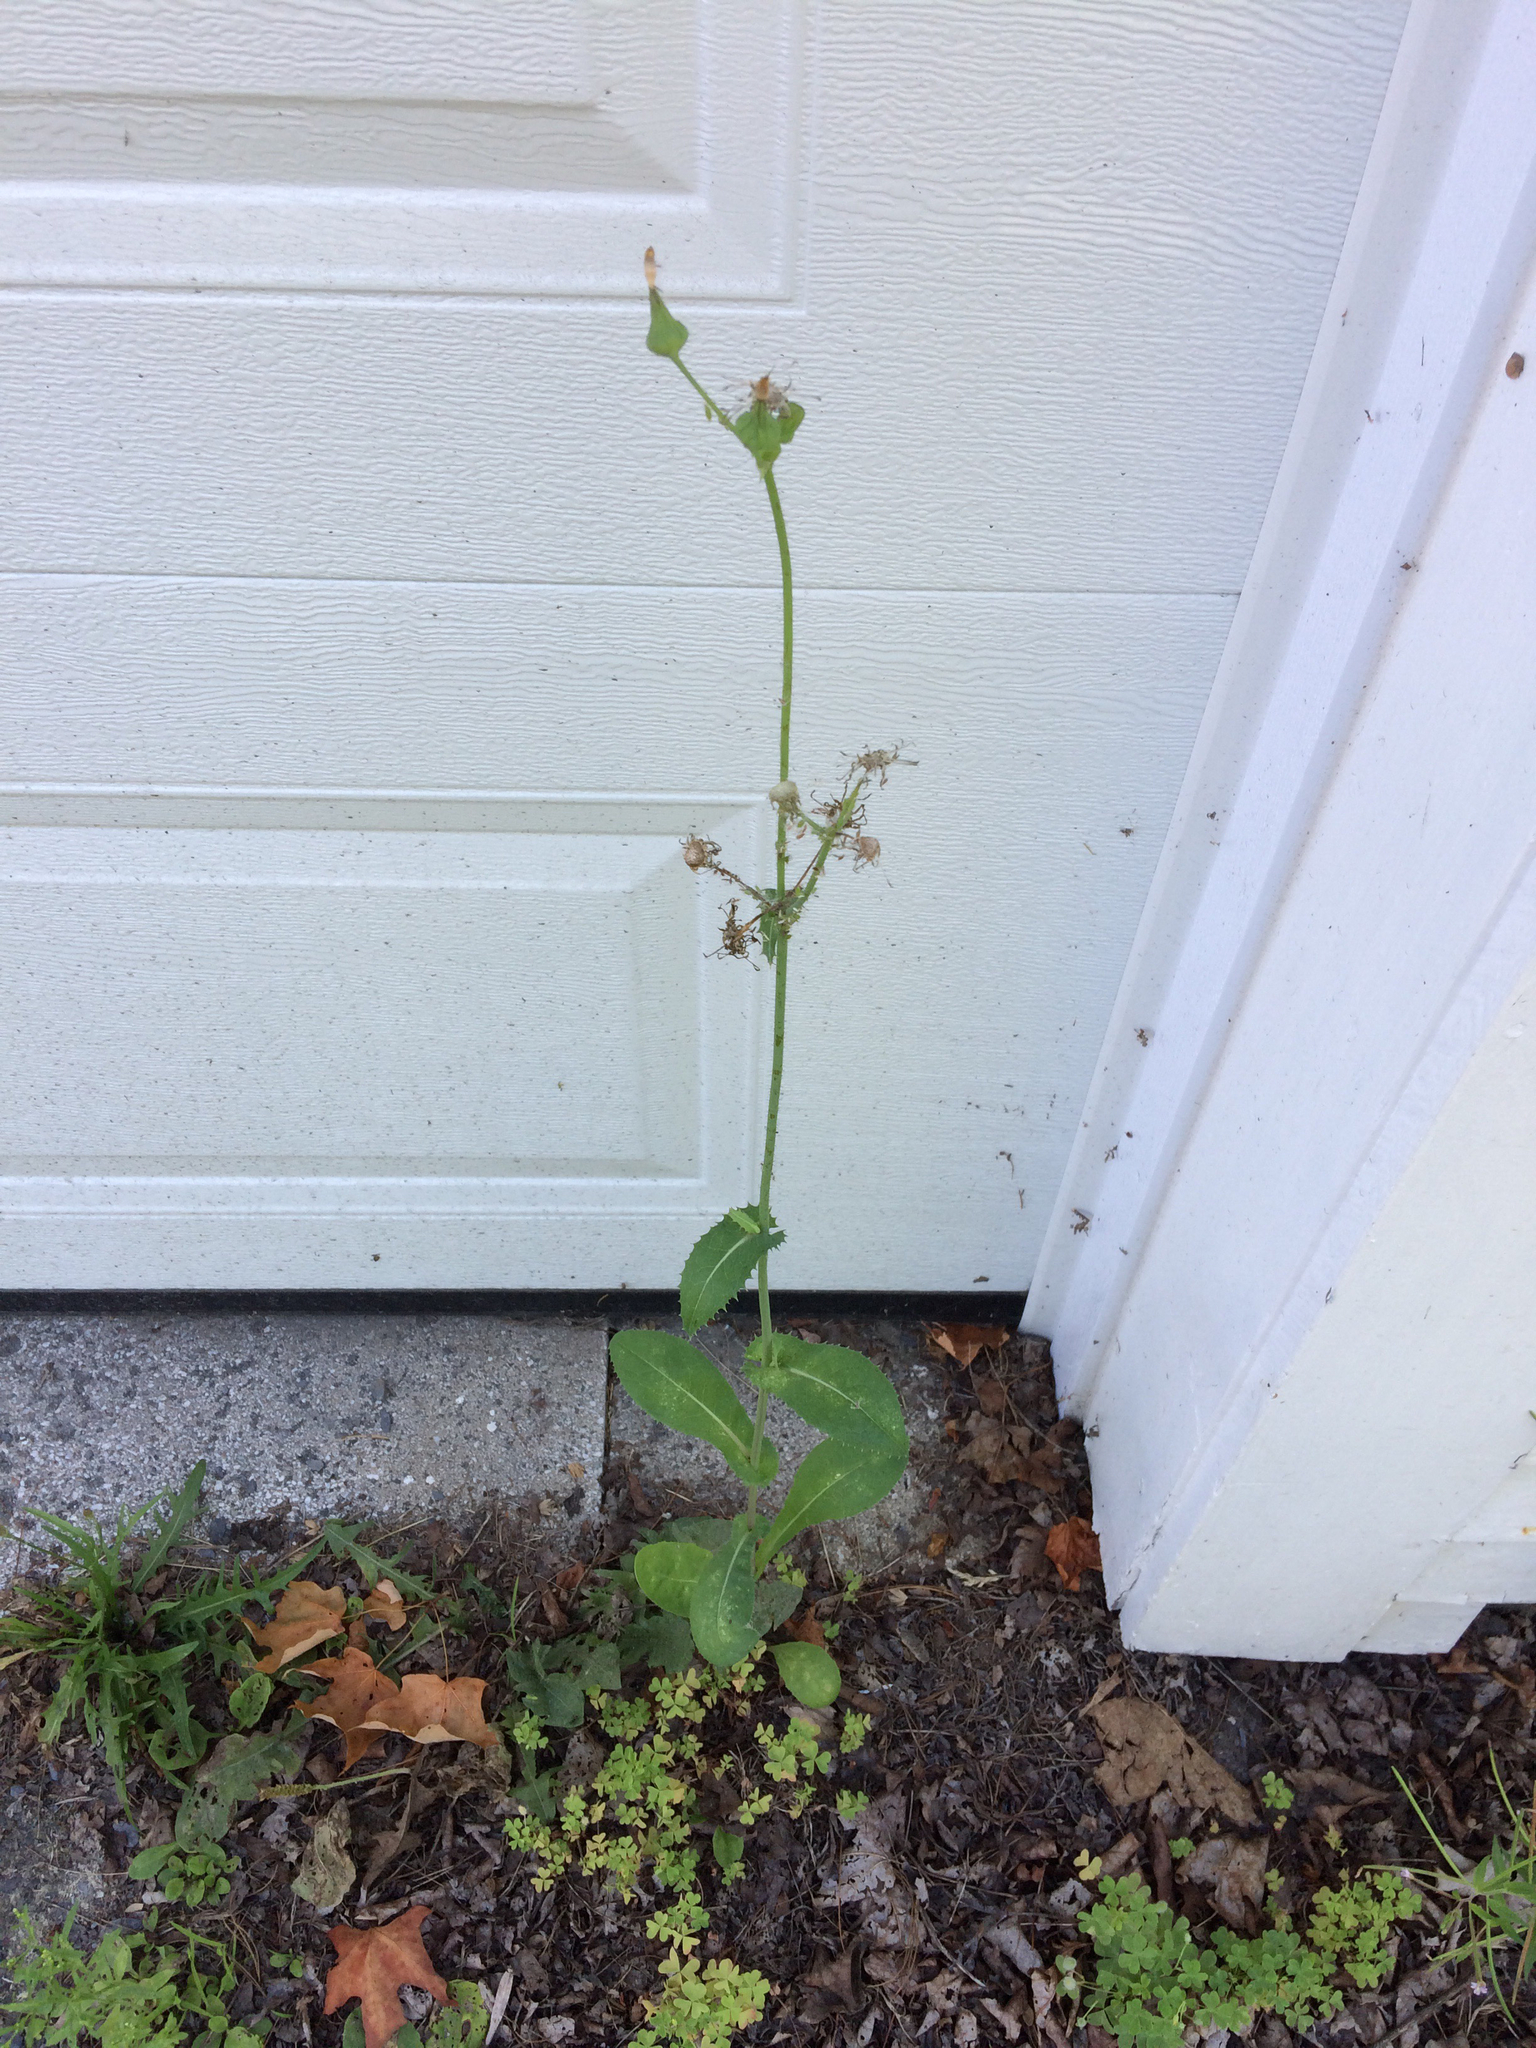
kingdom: Plantae
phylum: Tracheophyta
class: Magnoliopsida
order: Asterales
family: Asteraceae
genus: Sonchus
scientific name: Sonchus asper
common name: Prickly sow-thistle
